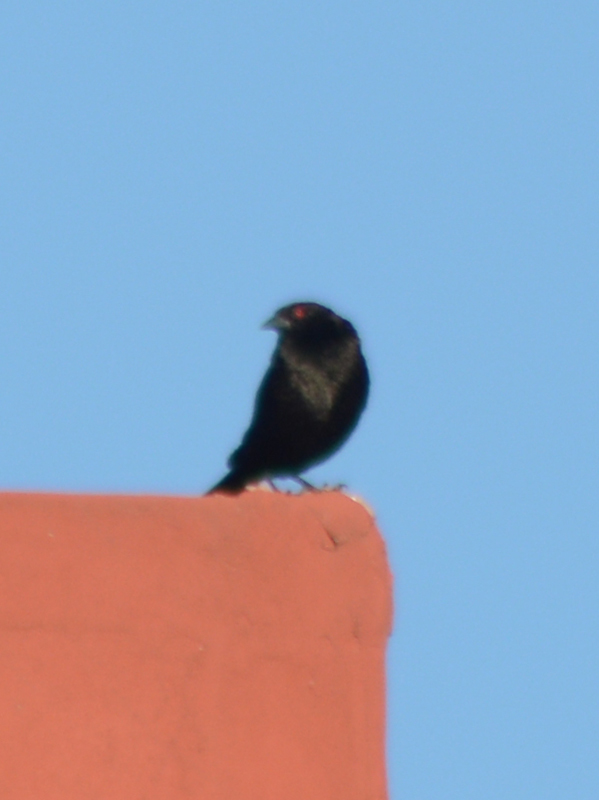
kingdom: Animalia
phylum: Chordata
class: Aves
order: Passeriformes
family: Icteridae
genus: Molothrus
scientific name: Molothrus aeneus
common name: Bronzed cowbird
